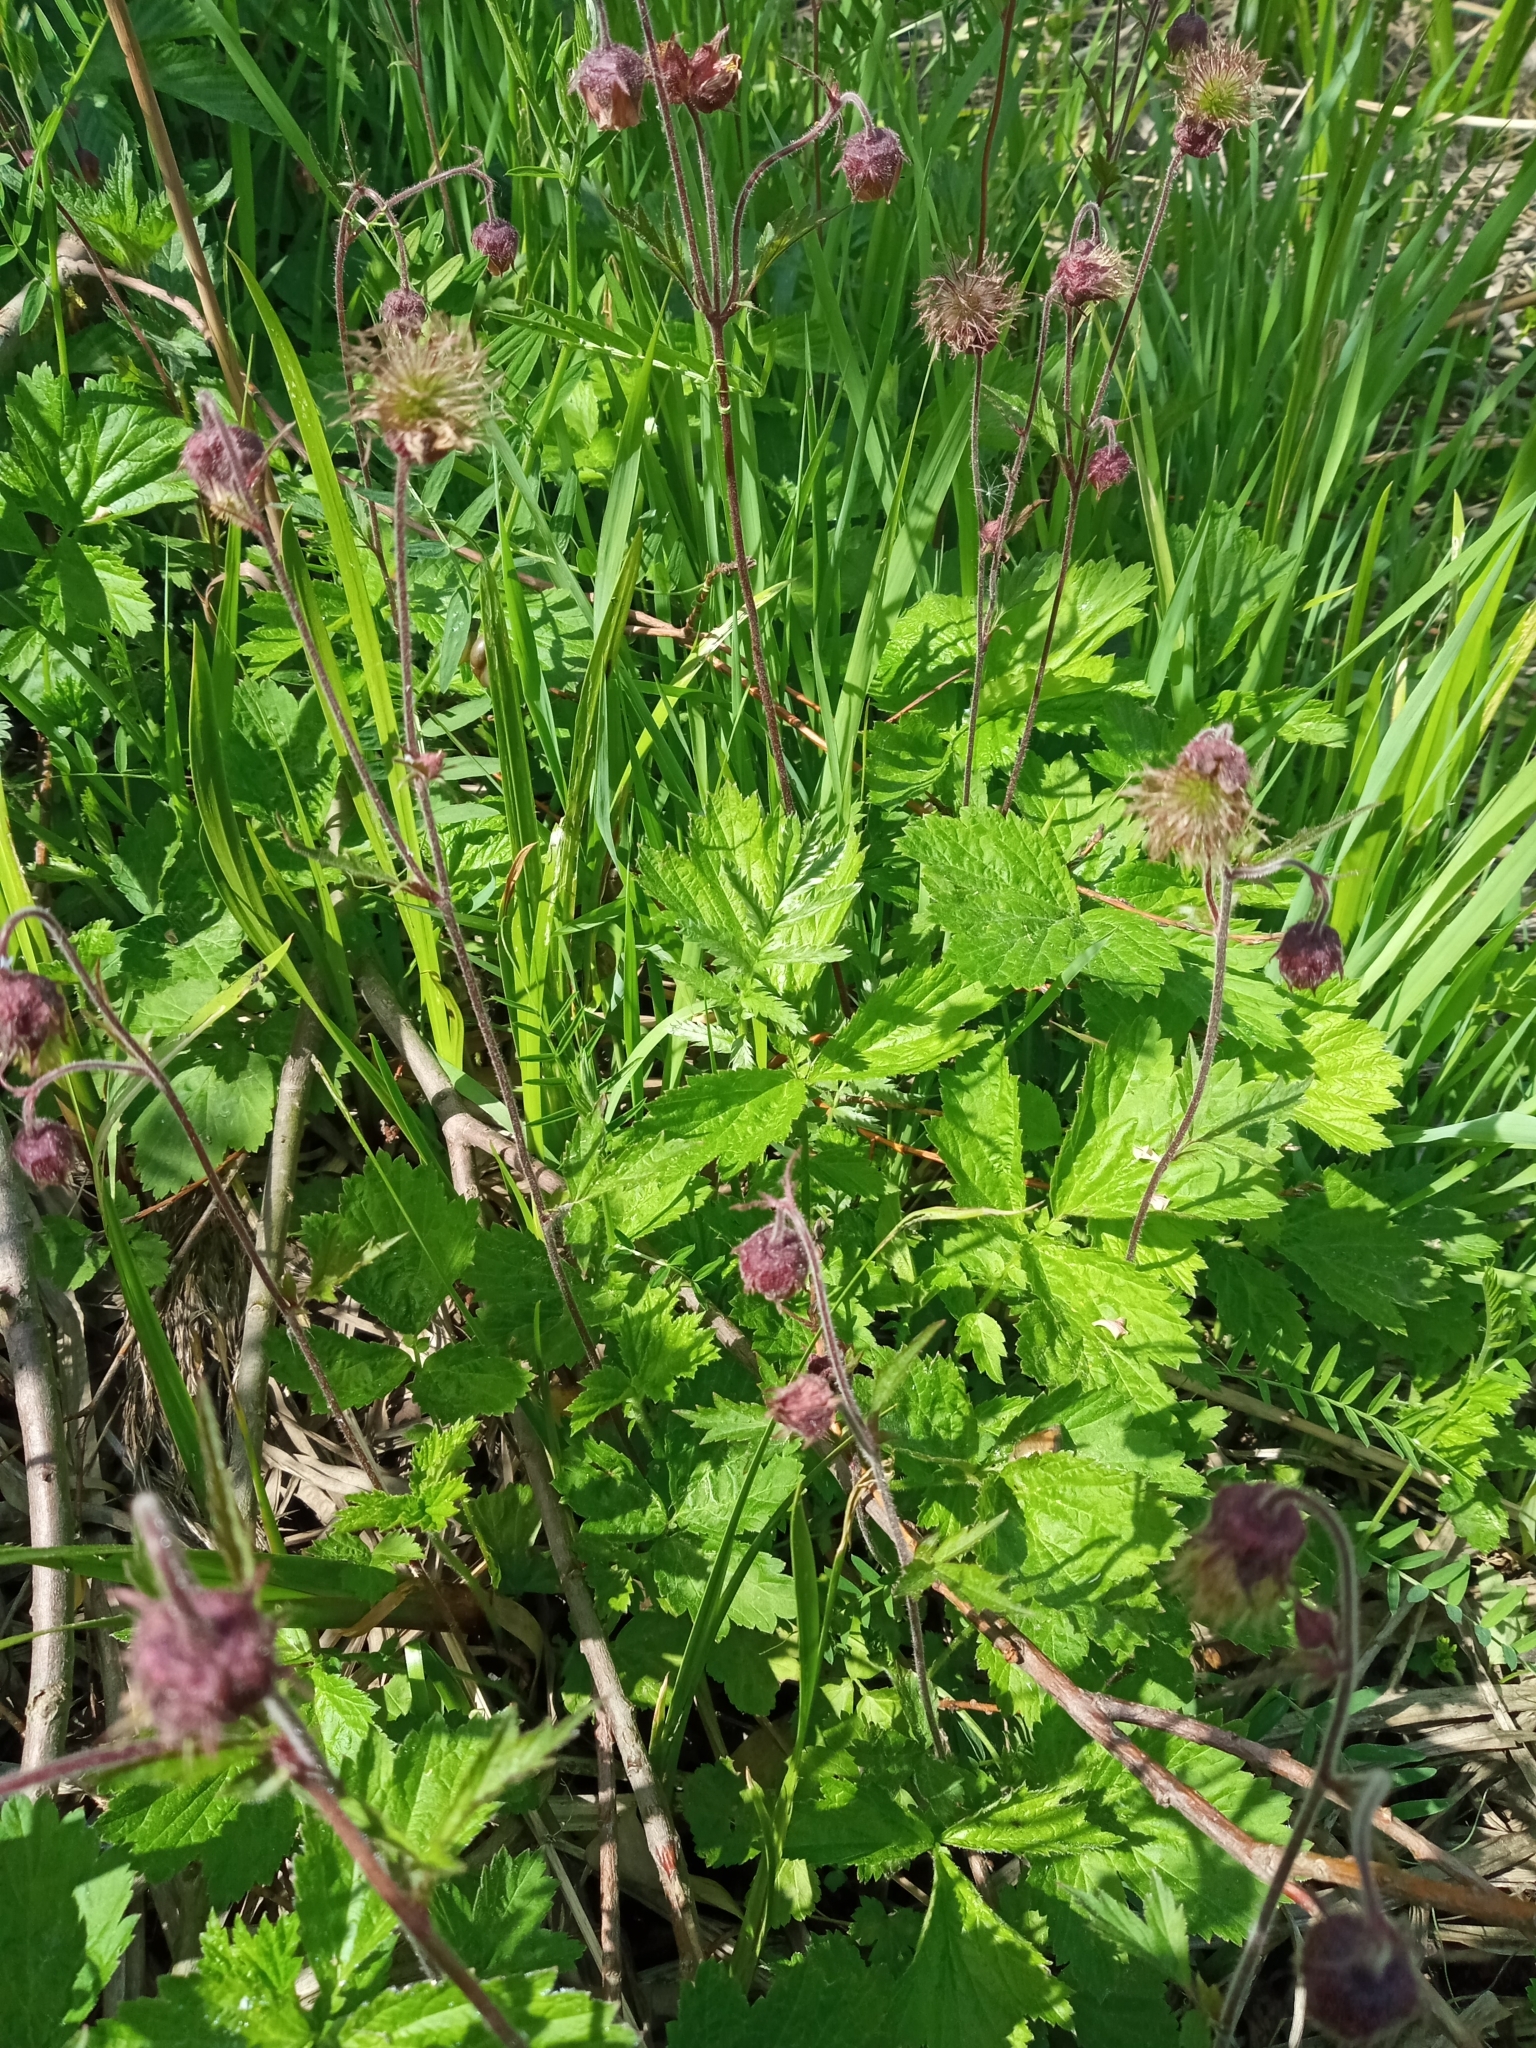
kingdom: Plantae
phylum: Tracheophyta
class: Magnoliopsida
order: Rosales
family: Rosaceae
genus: Geum
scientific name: Geum rivale
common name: Water avens
